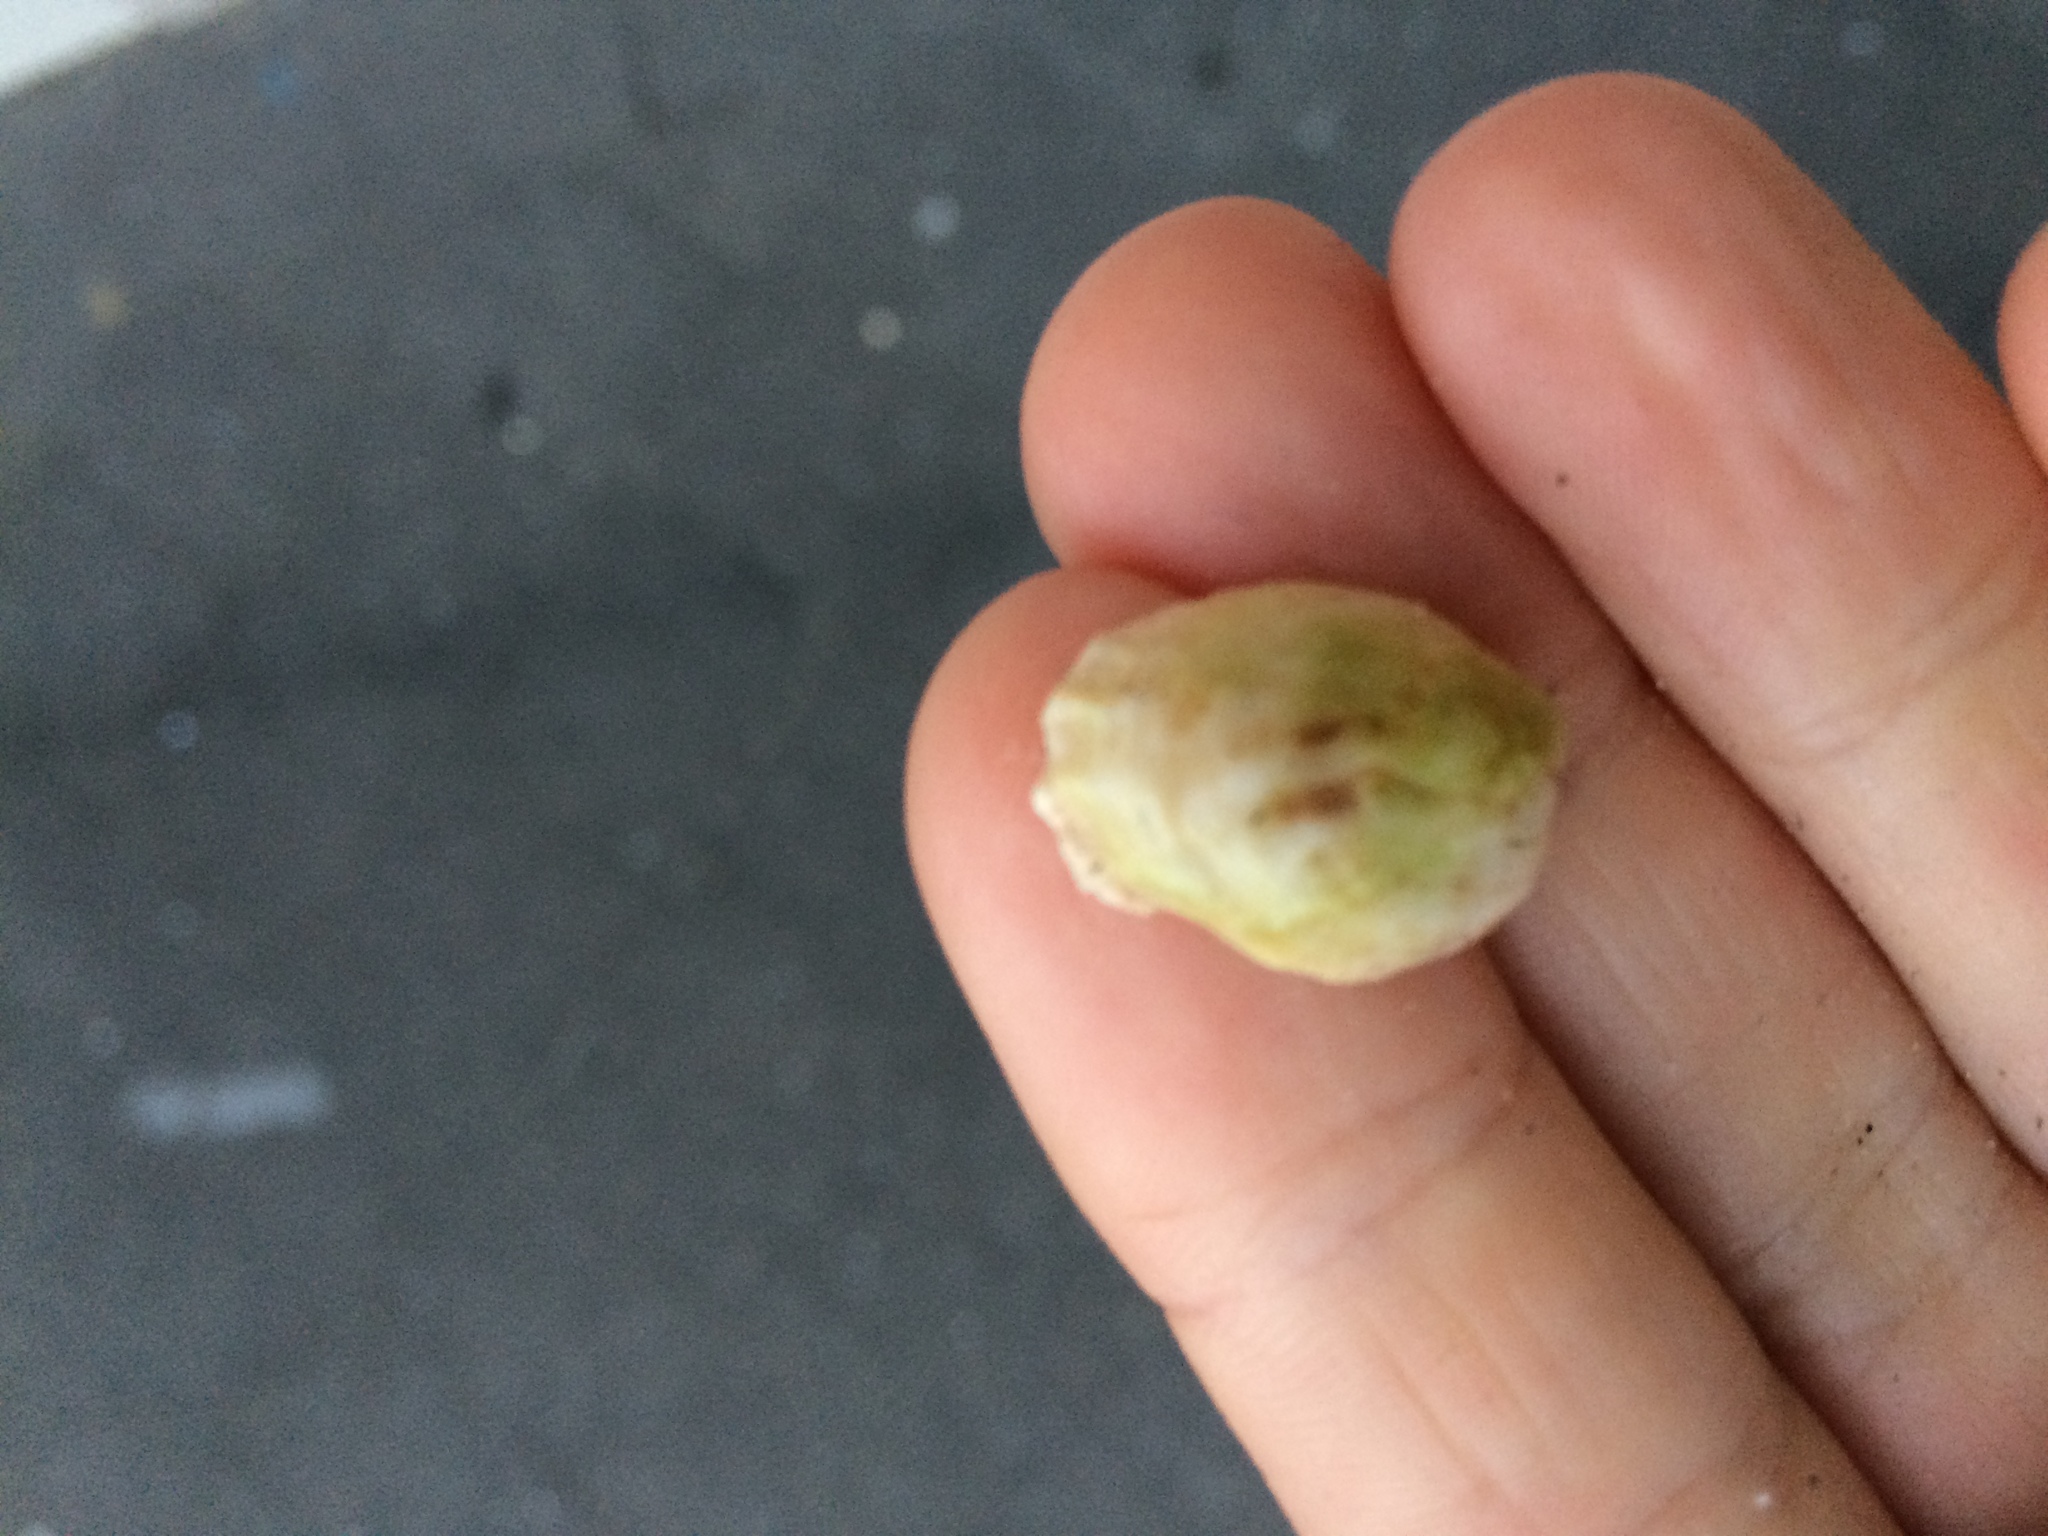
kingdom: Animalia
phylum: Mollusca
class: Gastropoda
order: Littorinimorpha
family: Calyptraeidae
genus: Maoricrypta
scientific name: Maoricrypta costata
